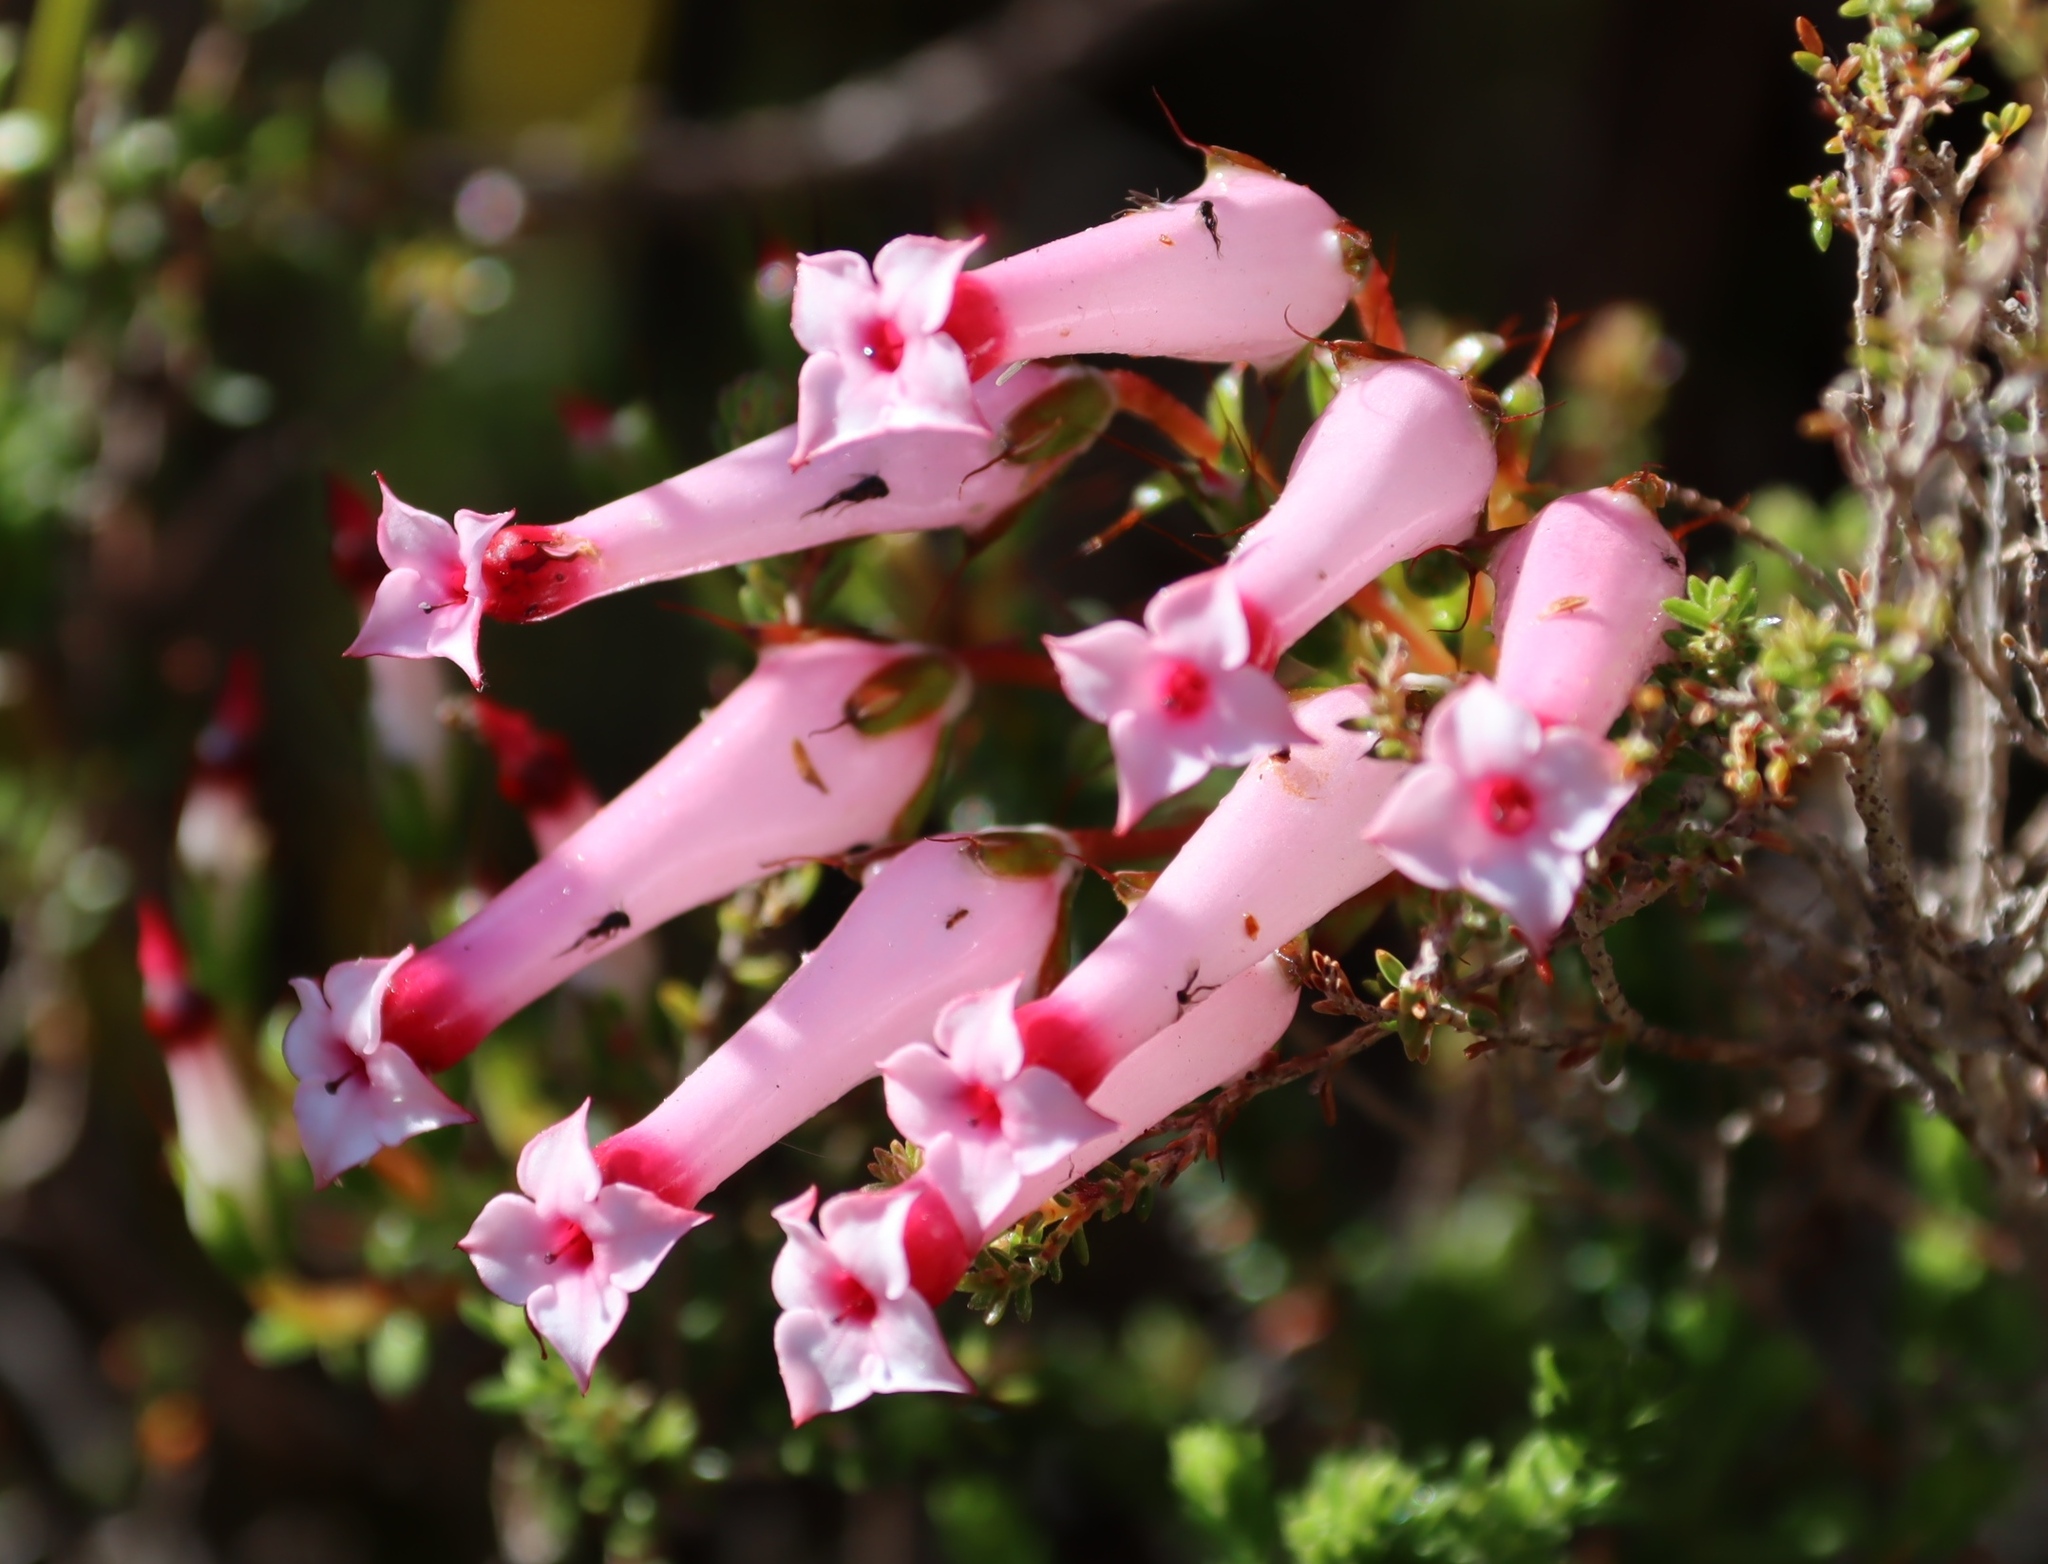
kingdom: Plantae
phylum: Tracheophyta
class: Magnoliopsida
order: Ericales
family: Ericaceae
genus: Erica
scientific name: Erica retorta
